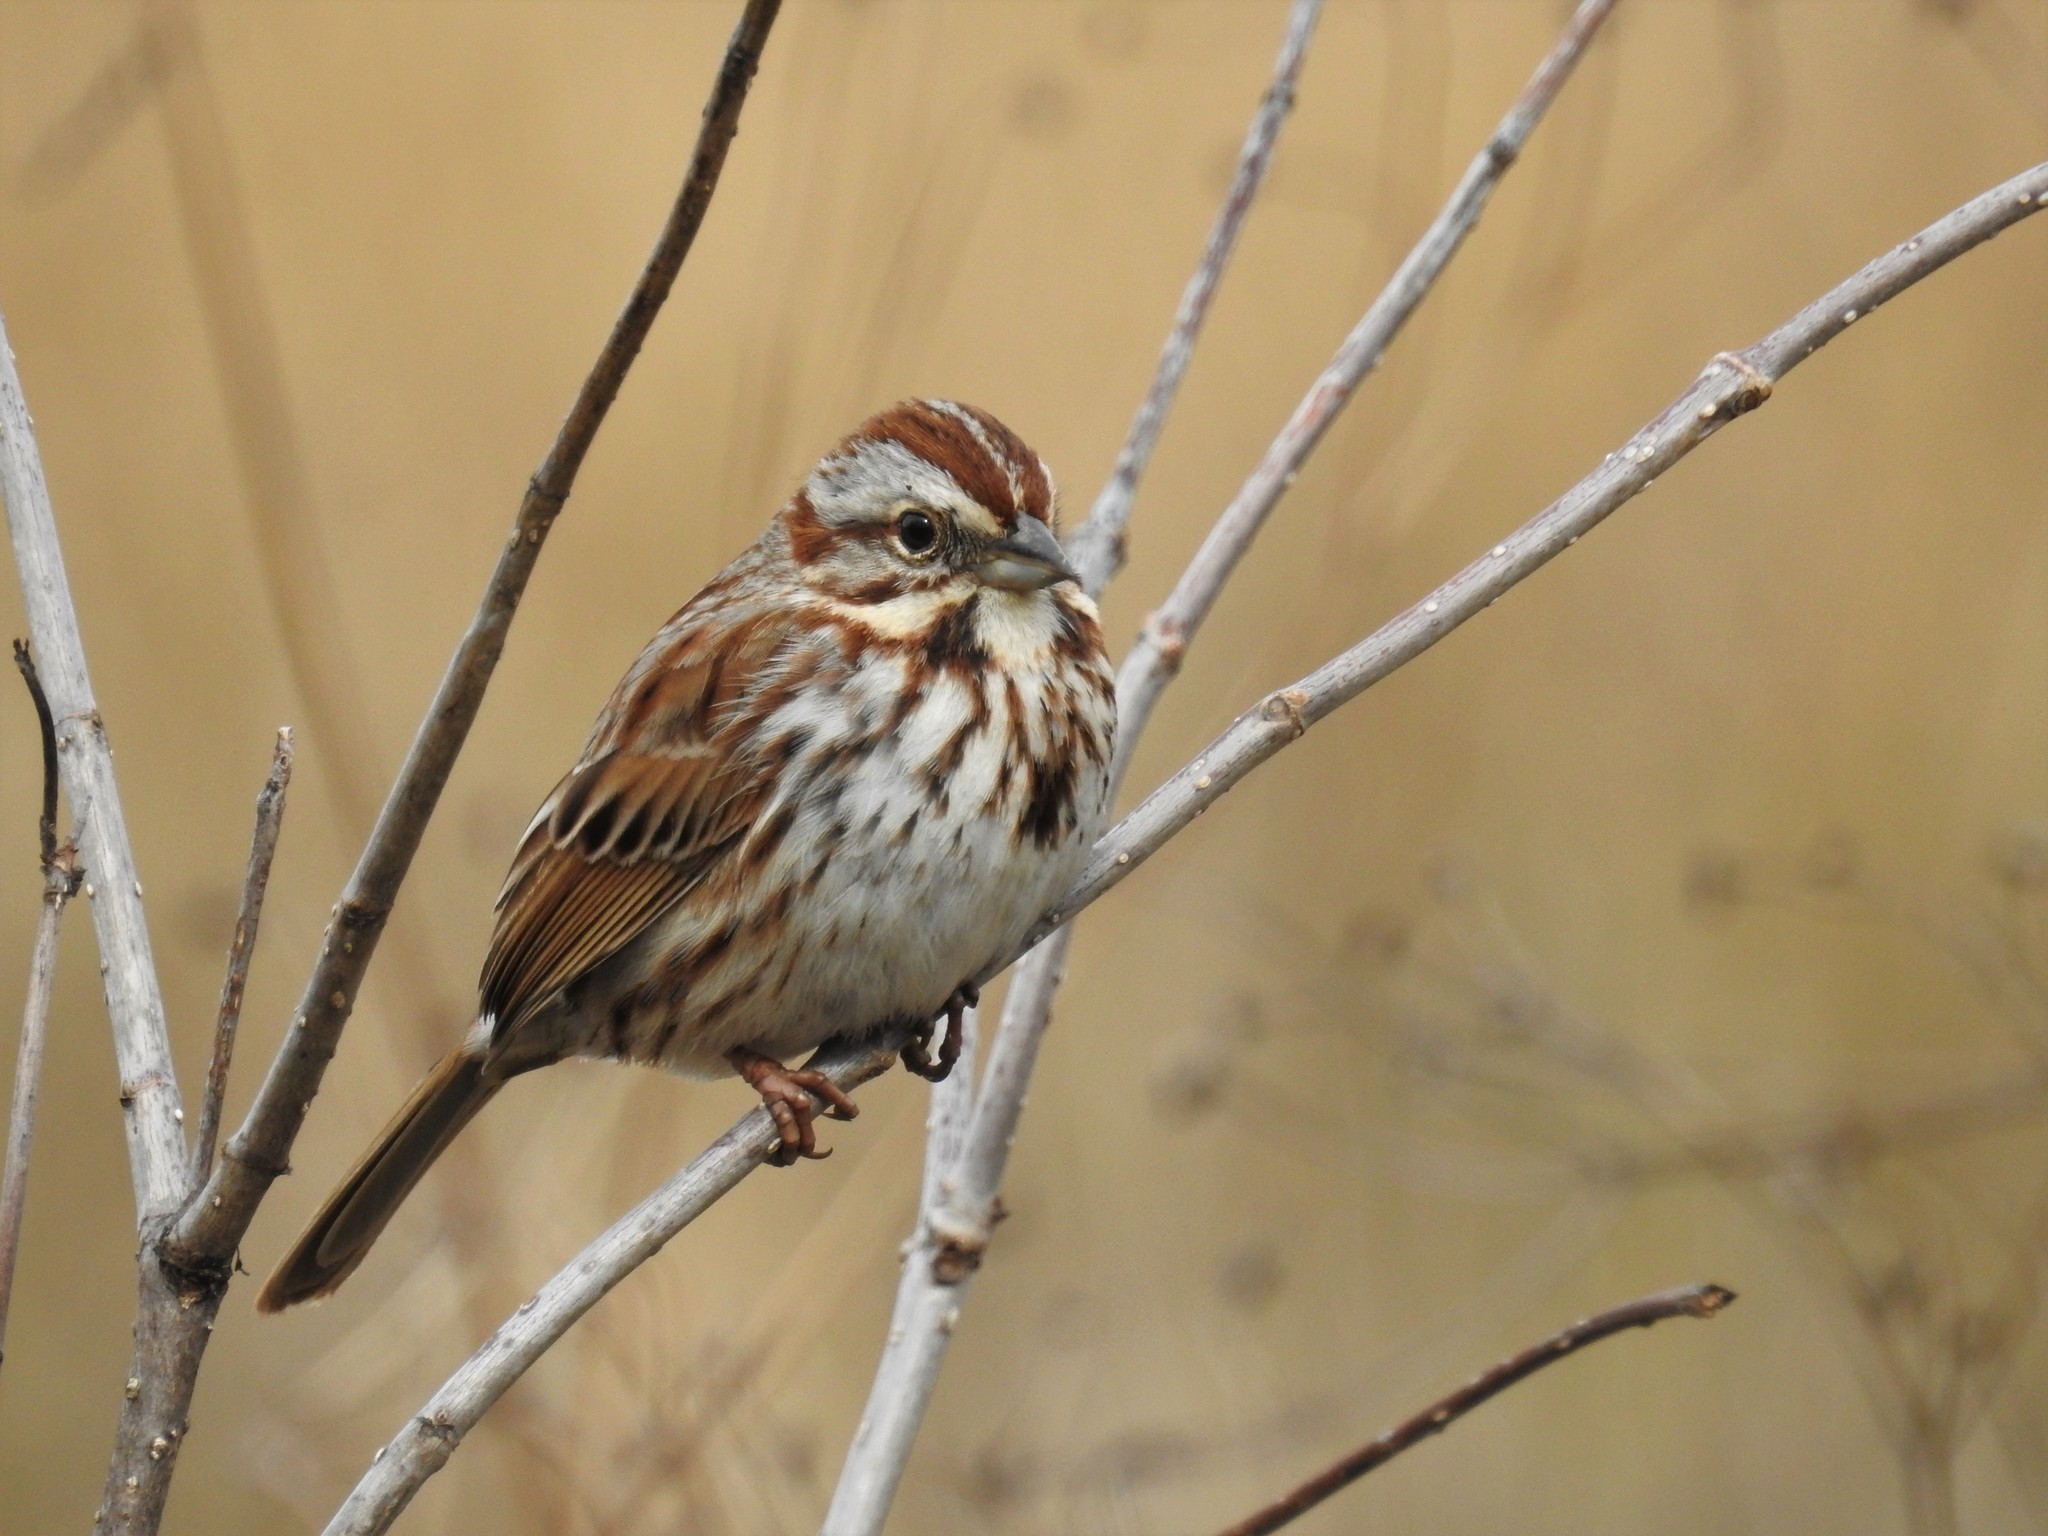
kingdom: Animalia
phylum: Chordata
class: Aves
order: Passeriformes
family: Passerellidae
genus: Melospiza
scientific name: Melospiza melodia
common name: Song sparrow
